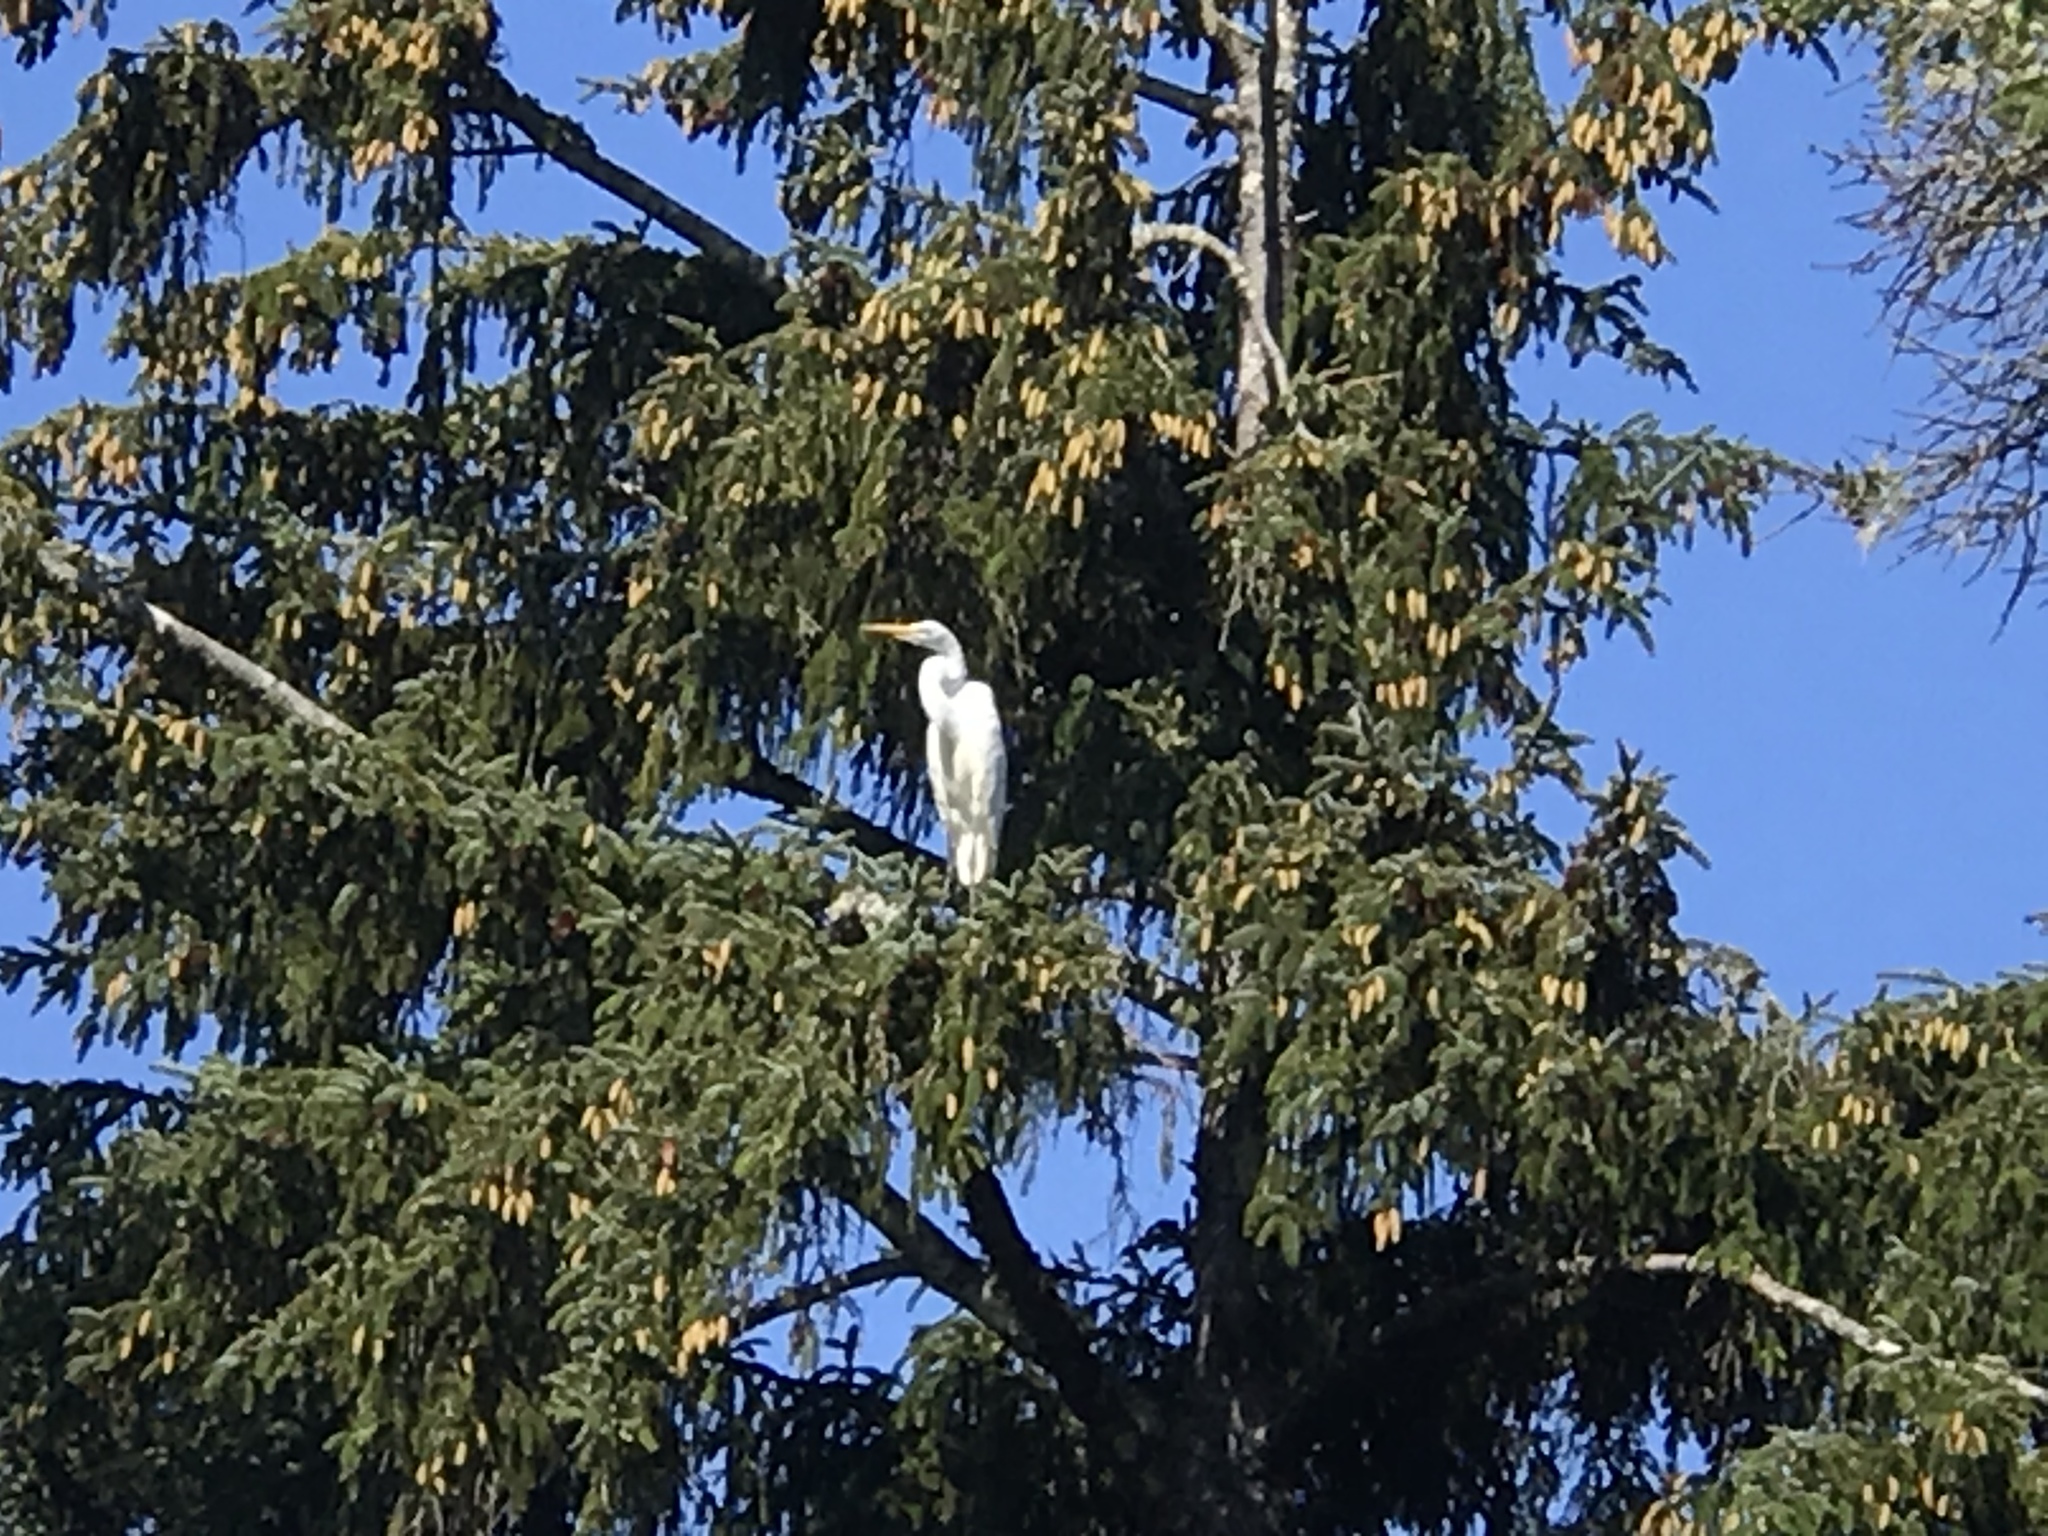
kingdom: Animalia
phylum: Chordata
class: Aves
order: Pelecaniformes
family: Ardeidae
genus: Ardea
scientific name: Ardea alba
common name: Great egret
